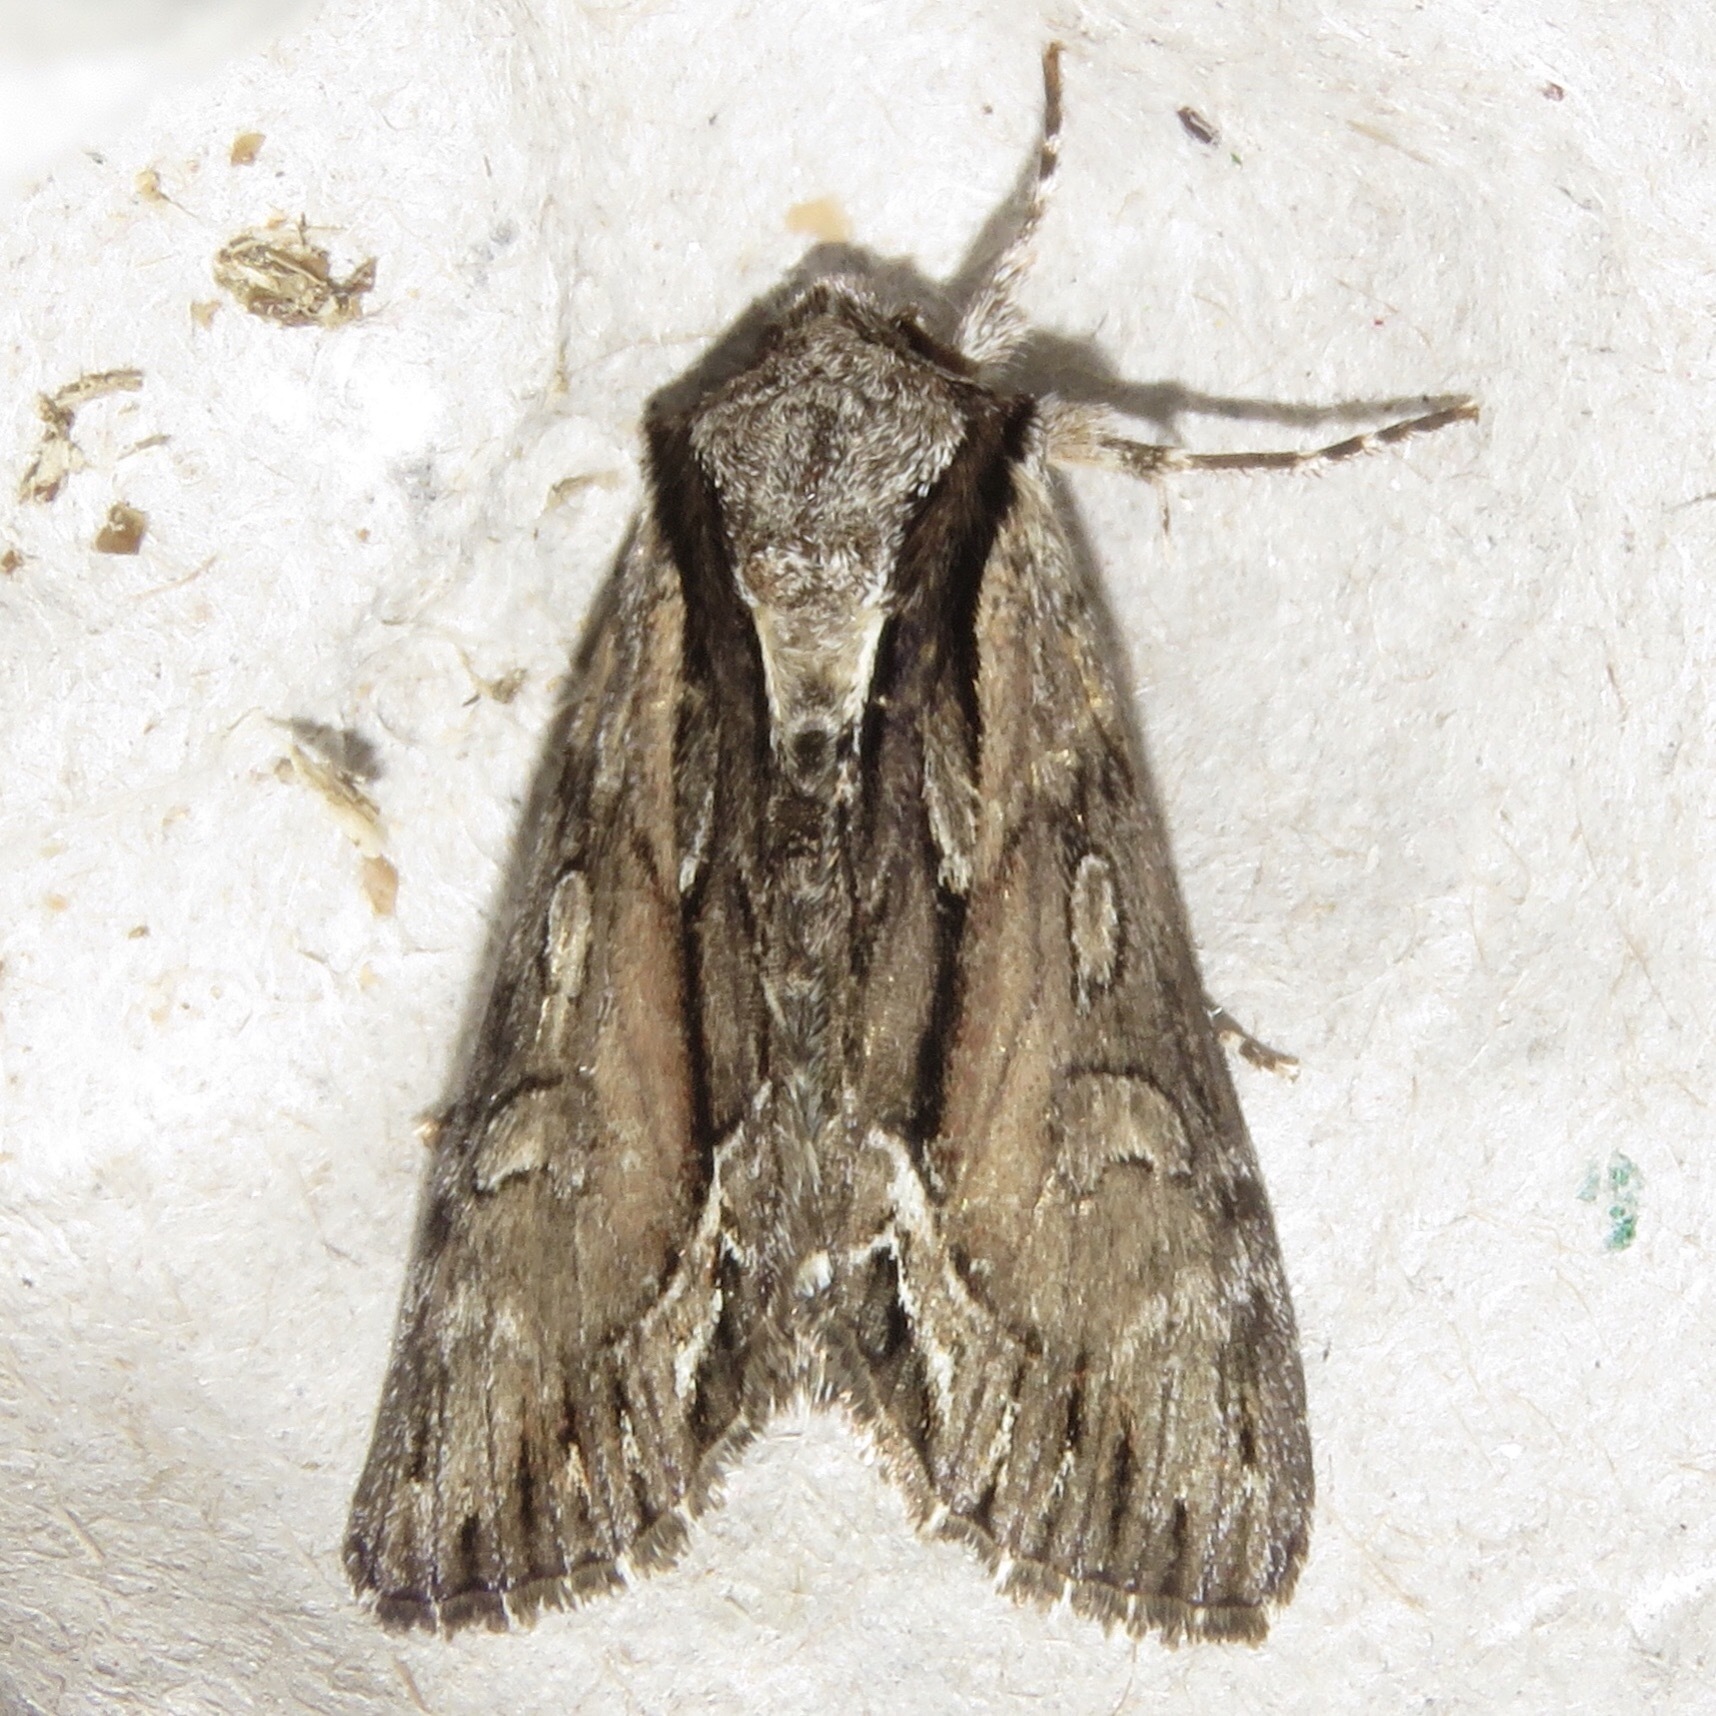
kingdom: Animalia
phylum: Arthropoda
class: Insecta
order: Lepidoptera
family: Noctuidae
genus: Hyppa
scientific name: Hyppa xylinoides
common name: Common hyppa moth
